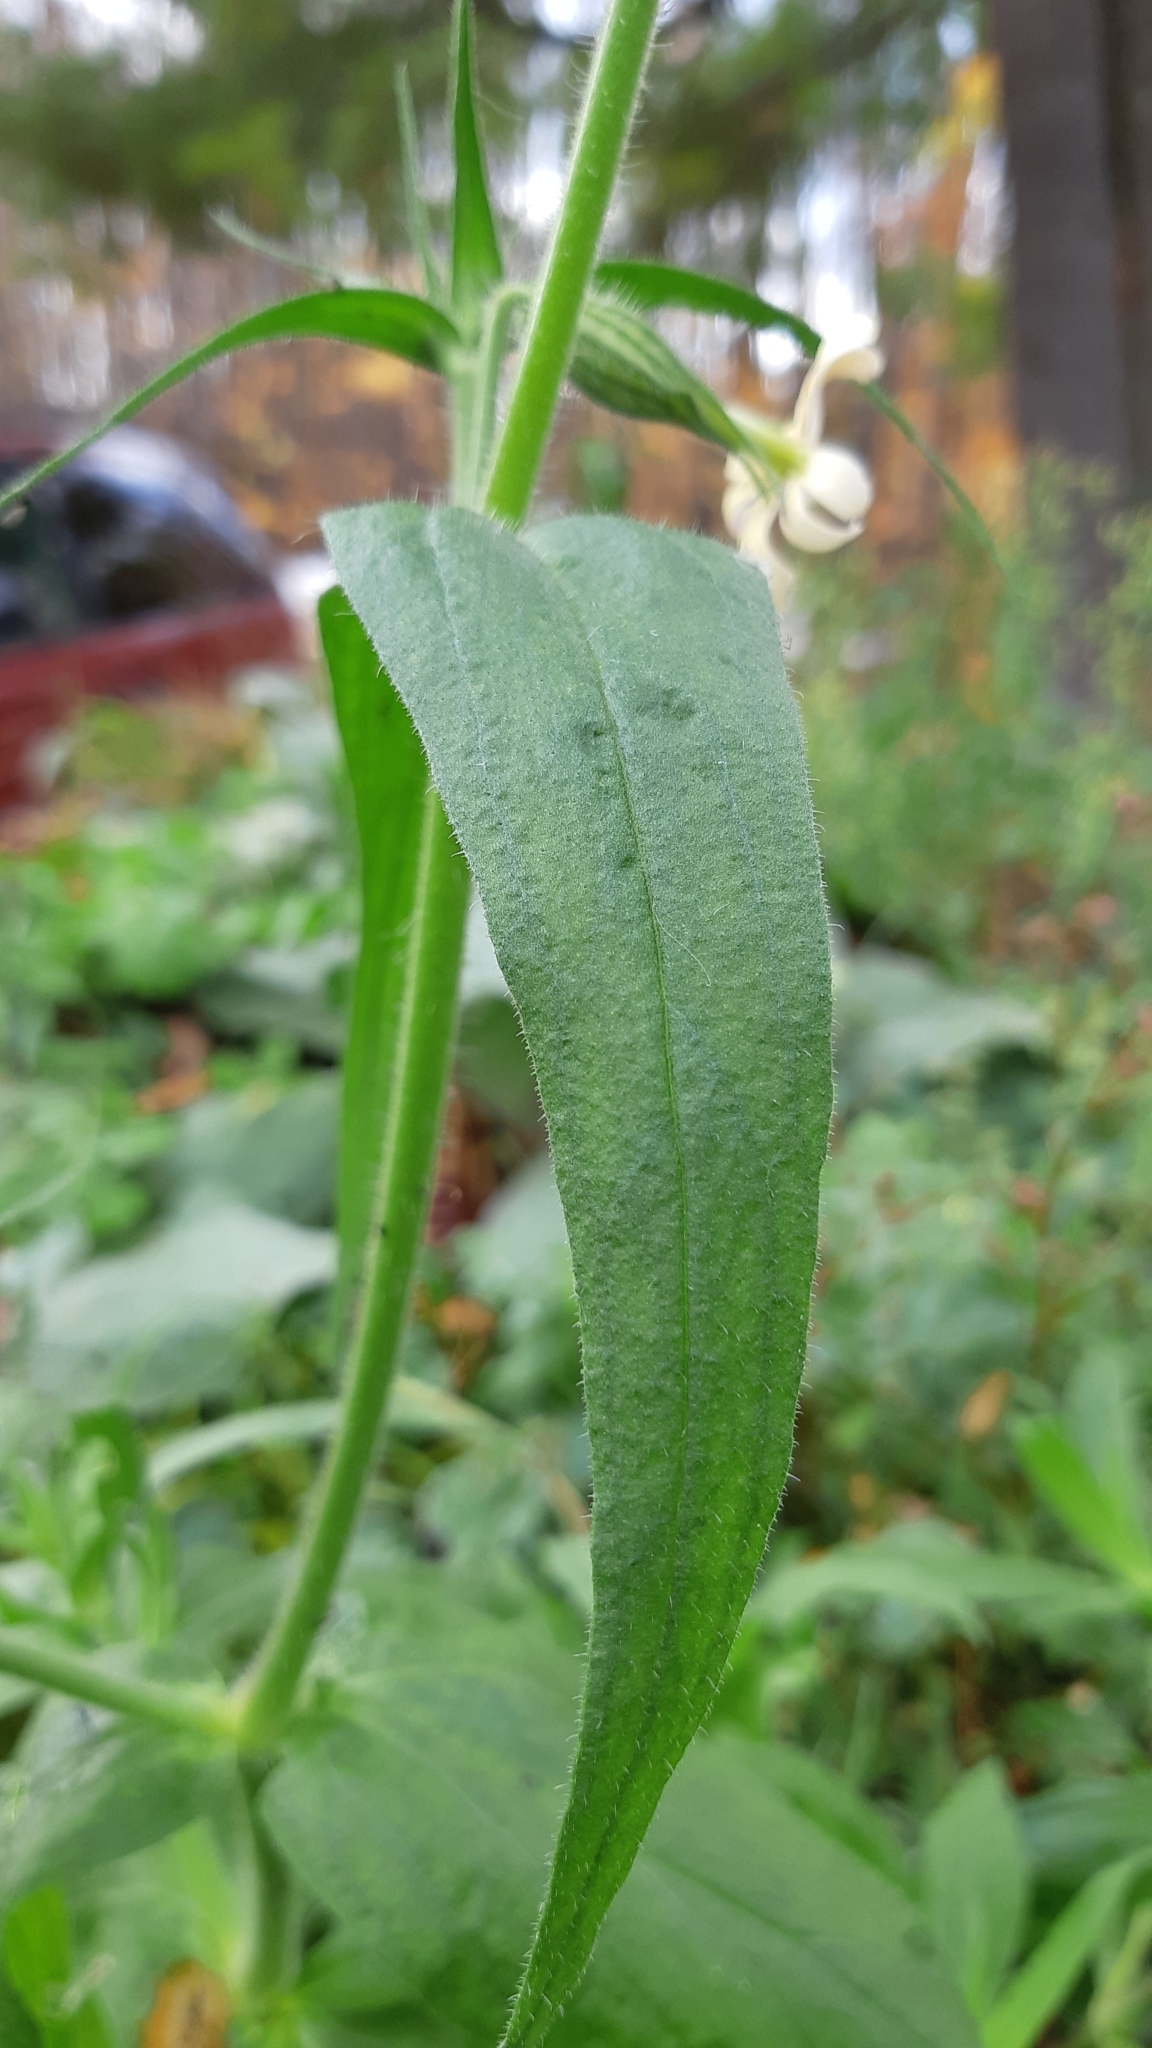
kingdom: Plantae
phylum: Tracheophyta
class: Magnoliopsida
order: Caryophyllales
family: Caryophyllaceae
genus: Silene
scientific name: Silene latifolia
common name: White campion
